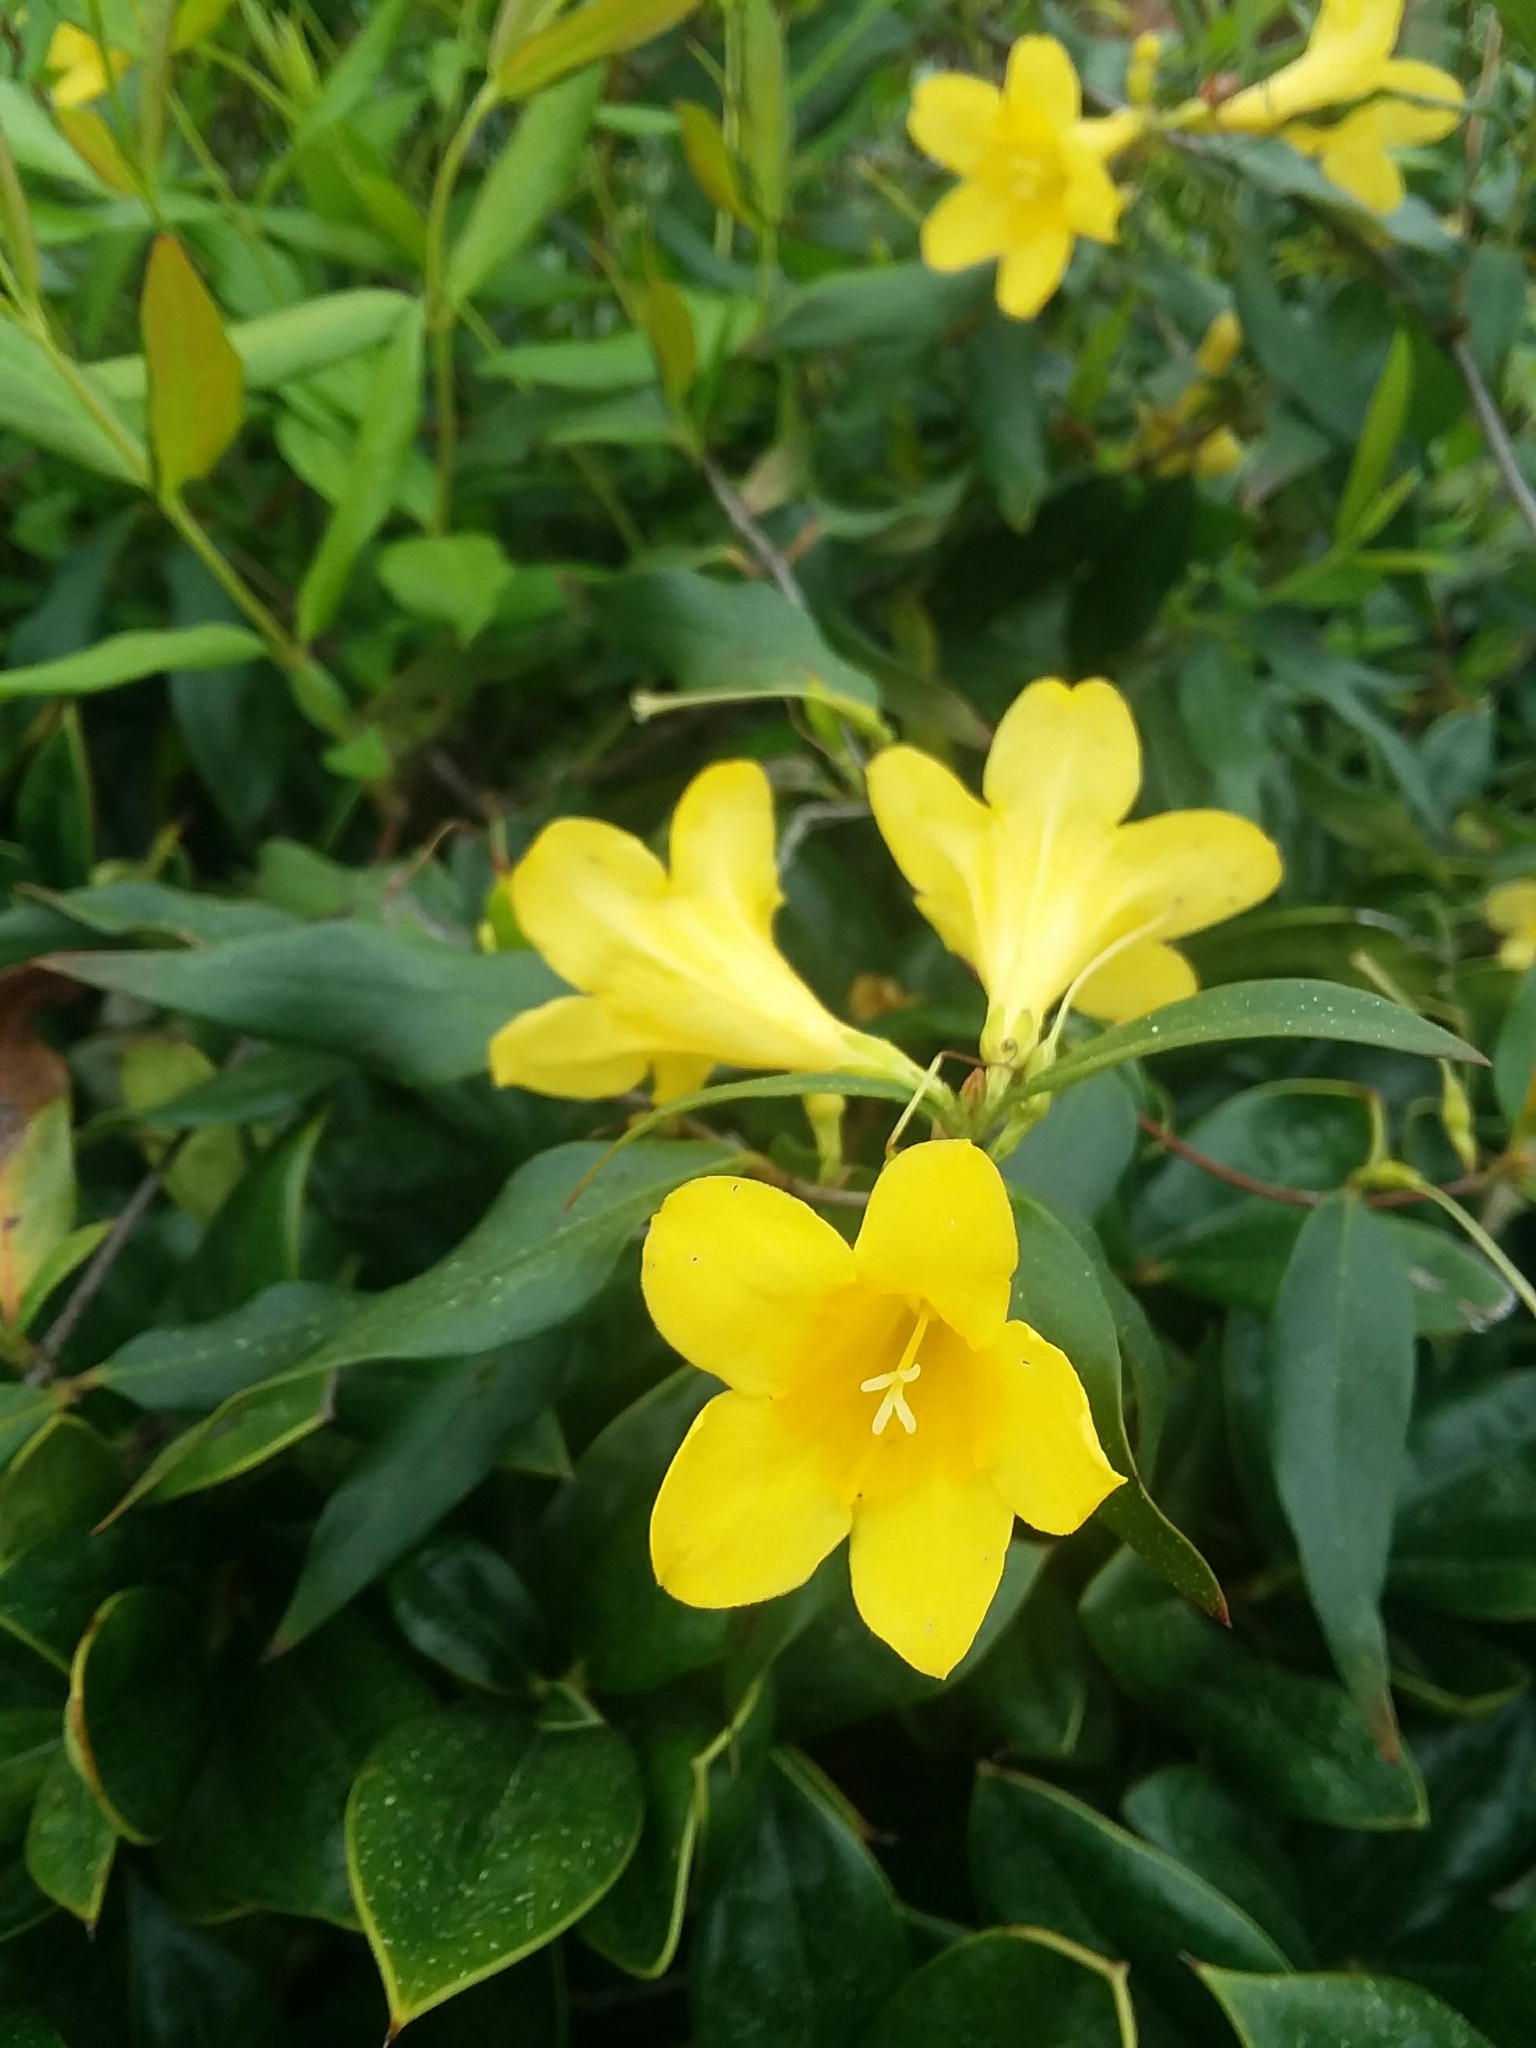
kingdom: Plantae
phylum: Tracheophyta
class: Magnoliopsida
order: Gentianales
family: Gelsemiaceae
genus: Gelsemium
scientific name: Gelsemium sempervirens
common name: Carolina-jasmine
